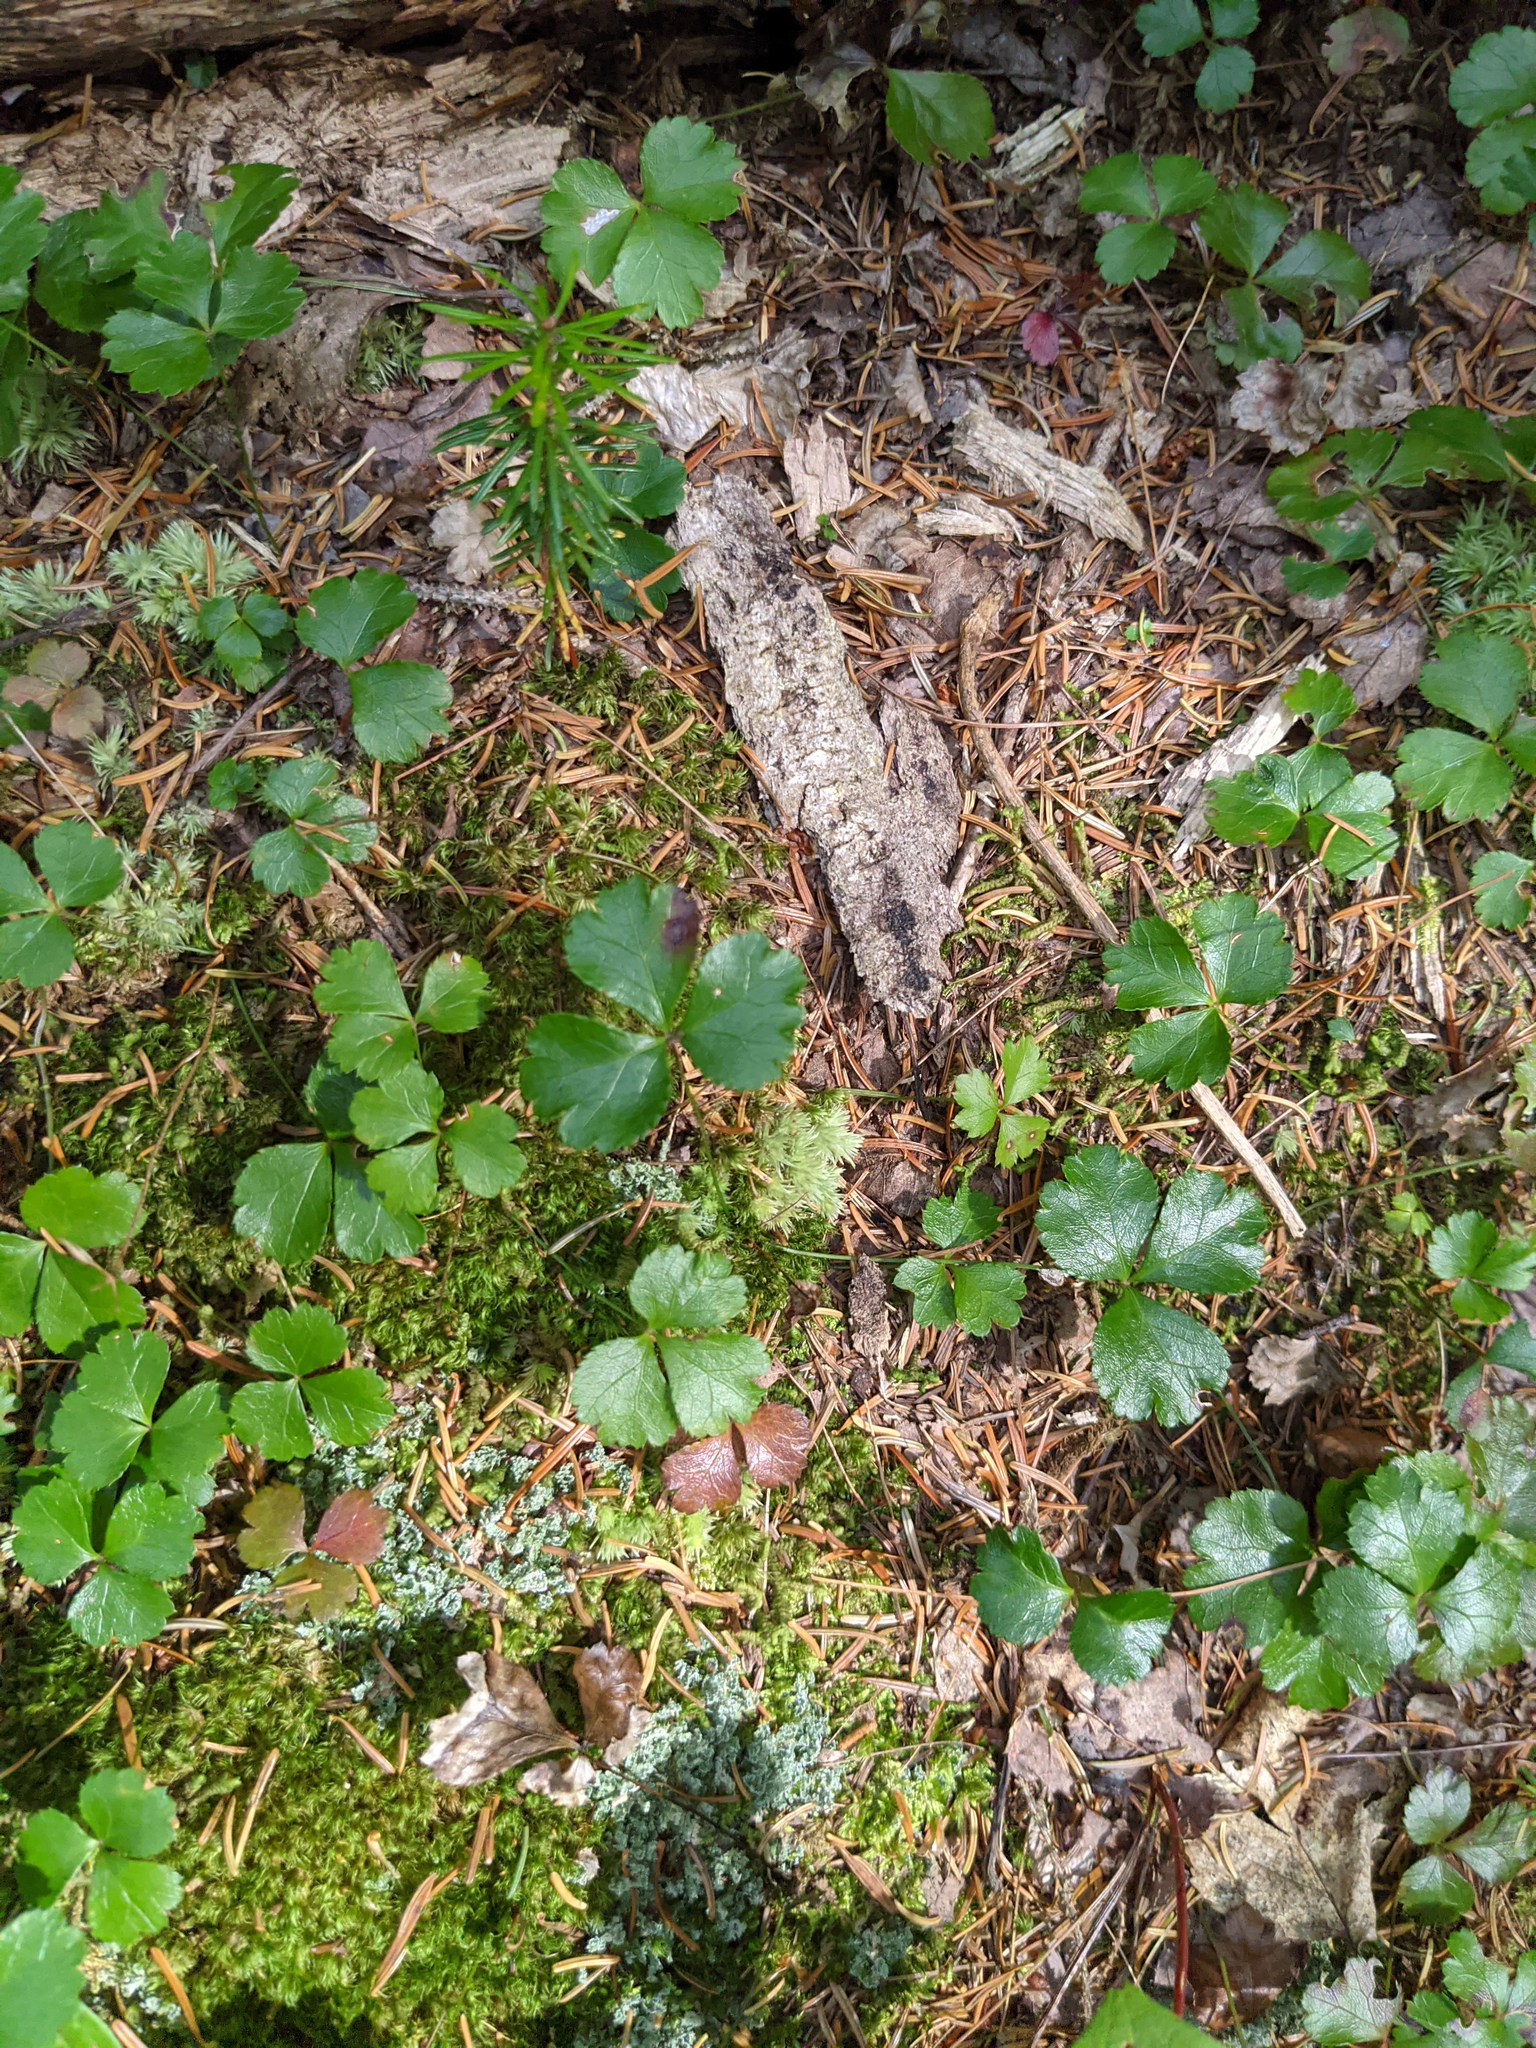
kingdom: Plantae
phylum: Tracheophyta
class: Magnoliopsida
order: Ranunculales
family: Ranunculaceae
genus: Coptis
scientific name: Coptis trifolia
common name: Canker-root
